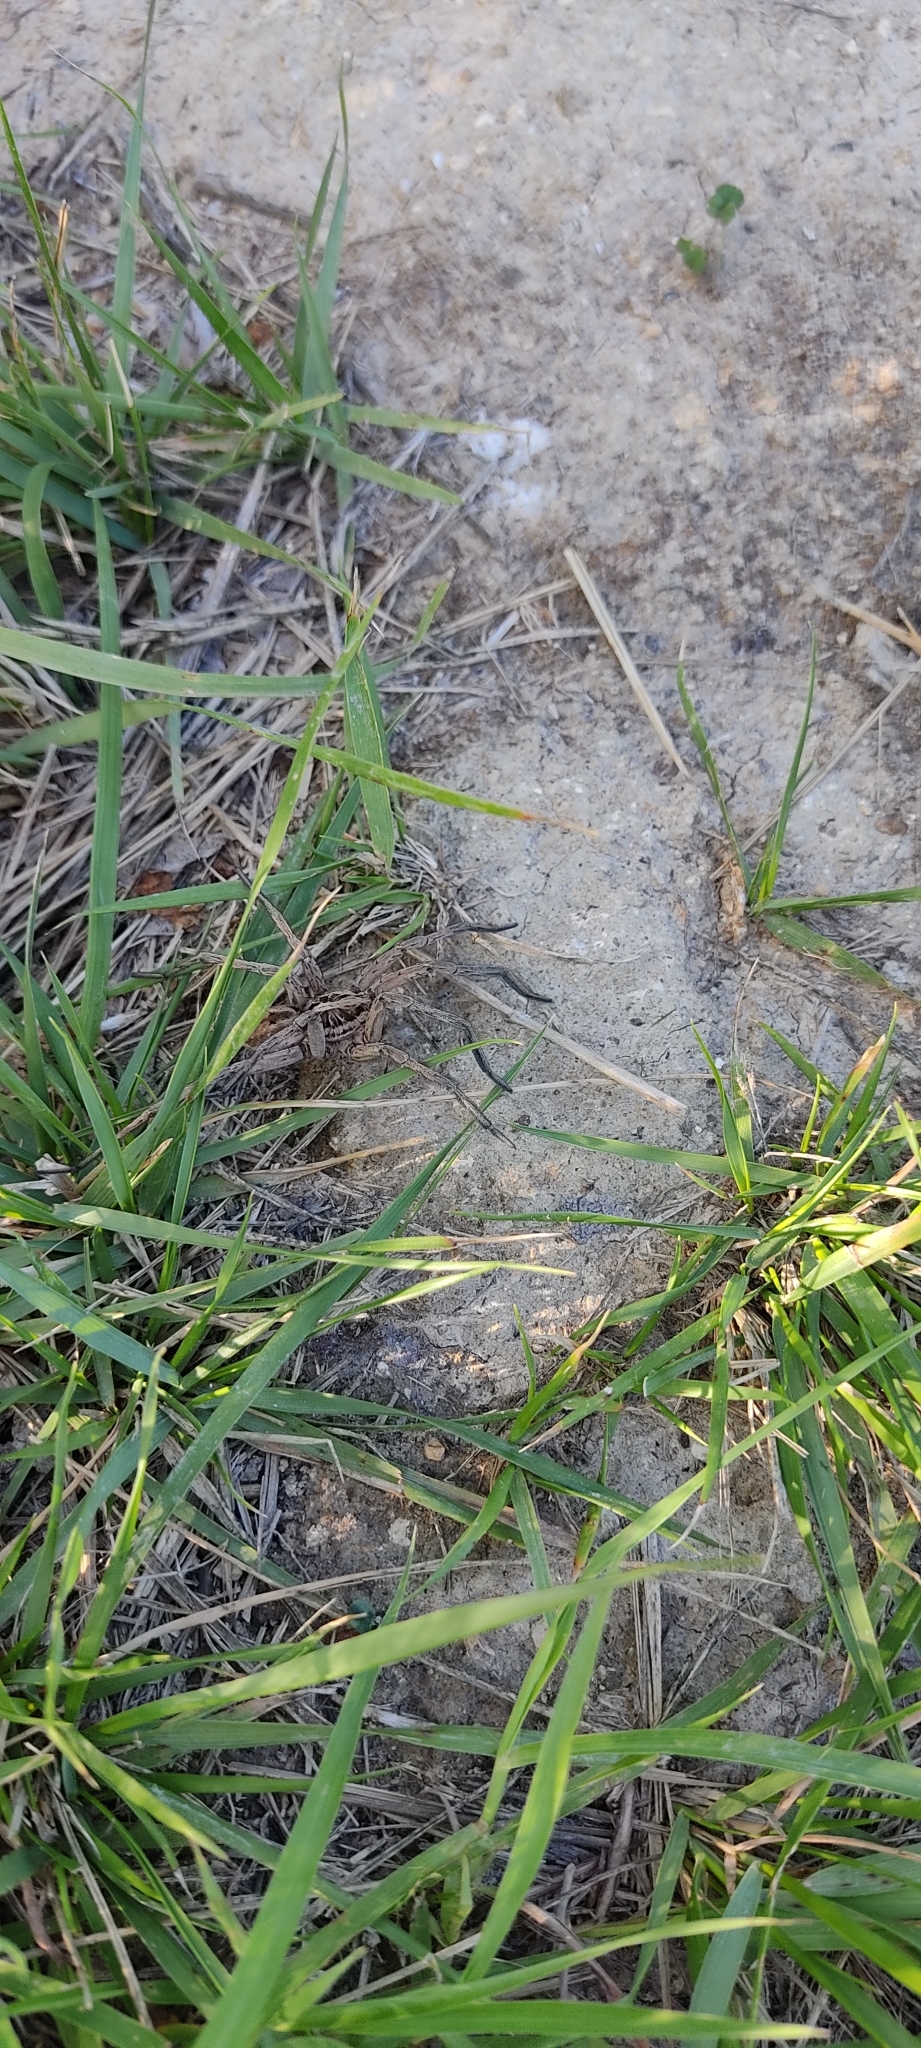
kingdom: Animalia
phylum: Arthropoda
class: Arachnida
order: Araneae
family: Lycosidae
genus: Hogna
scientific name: Hogna radiata
